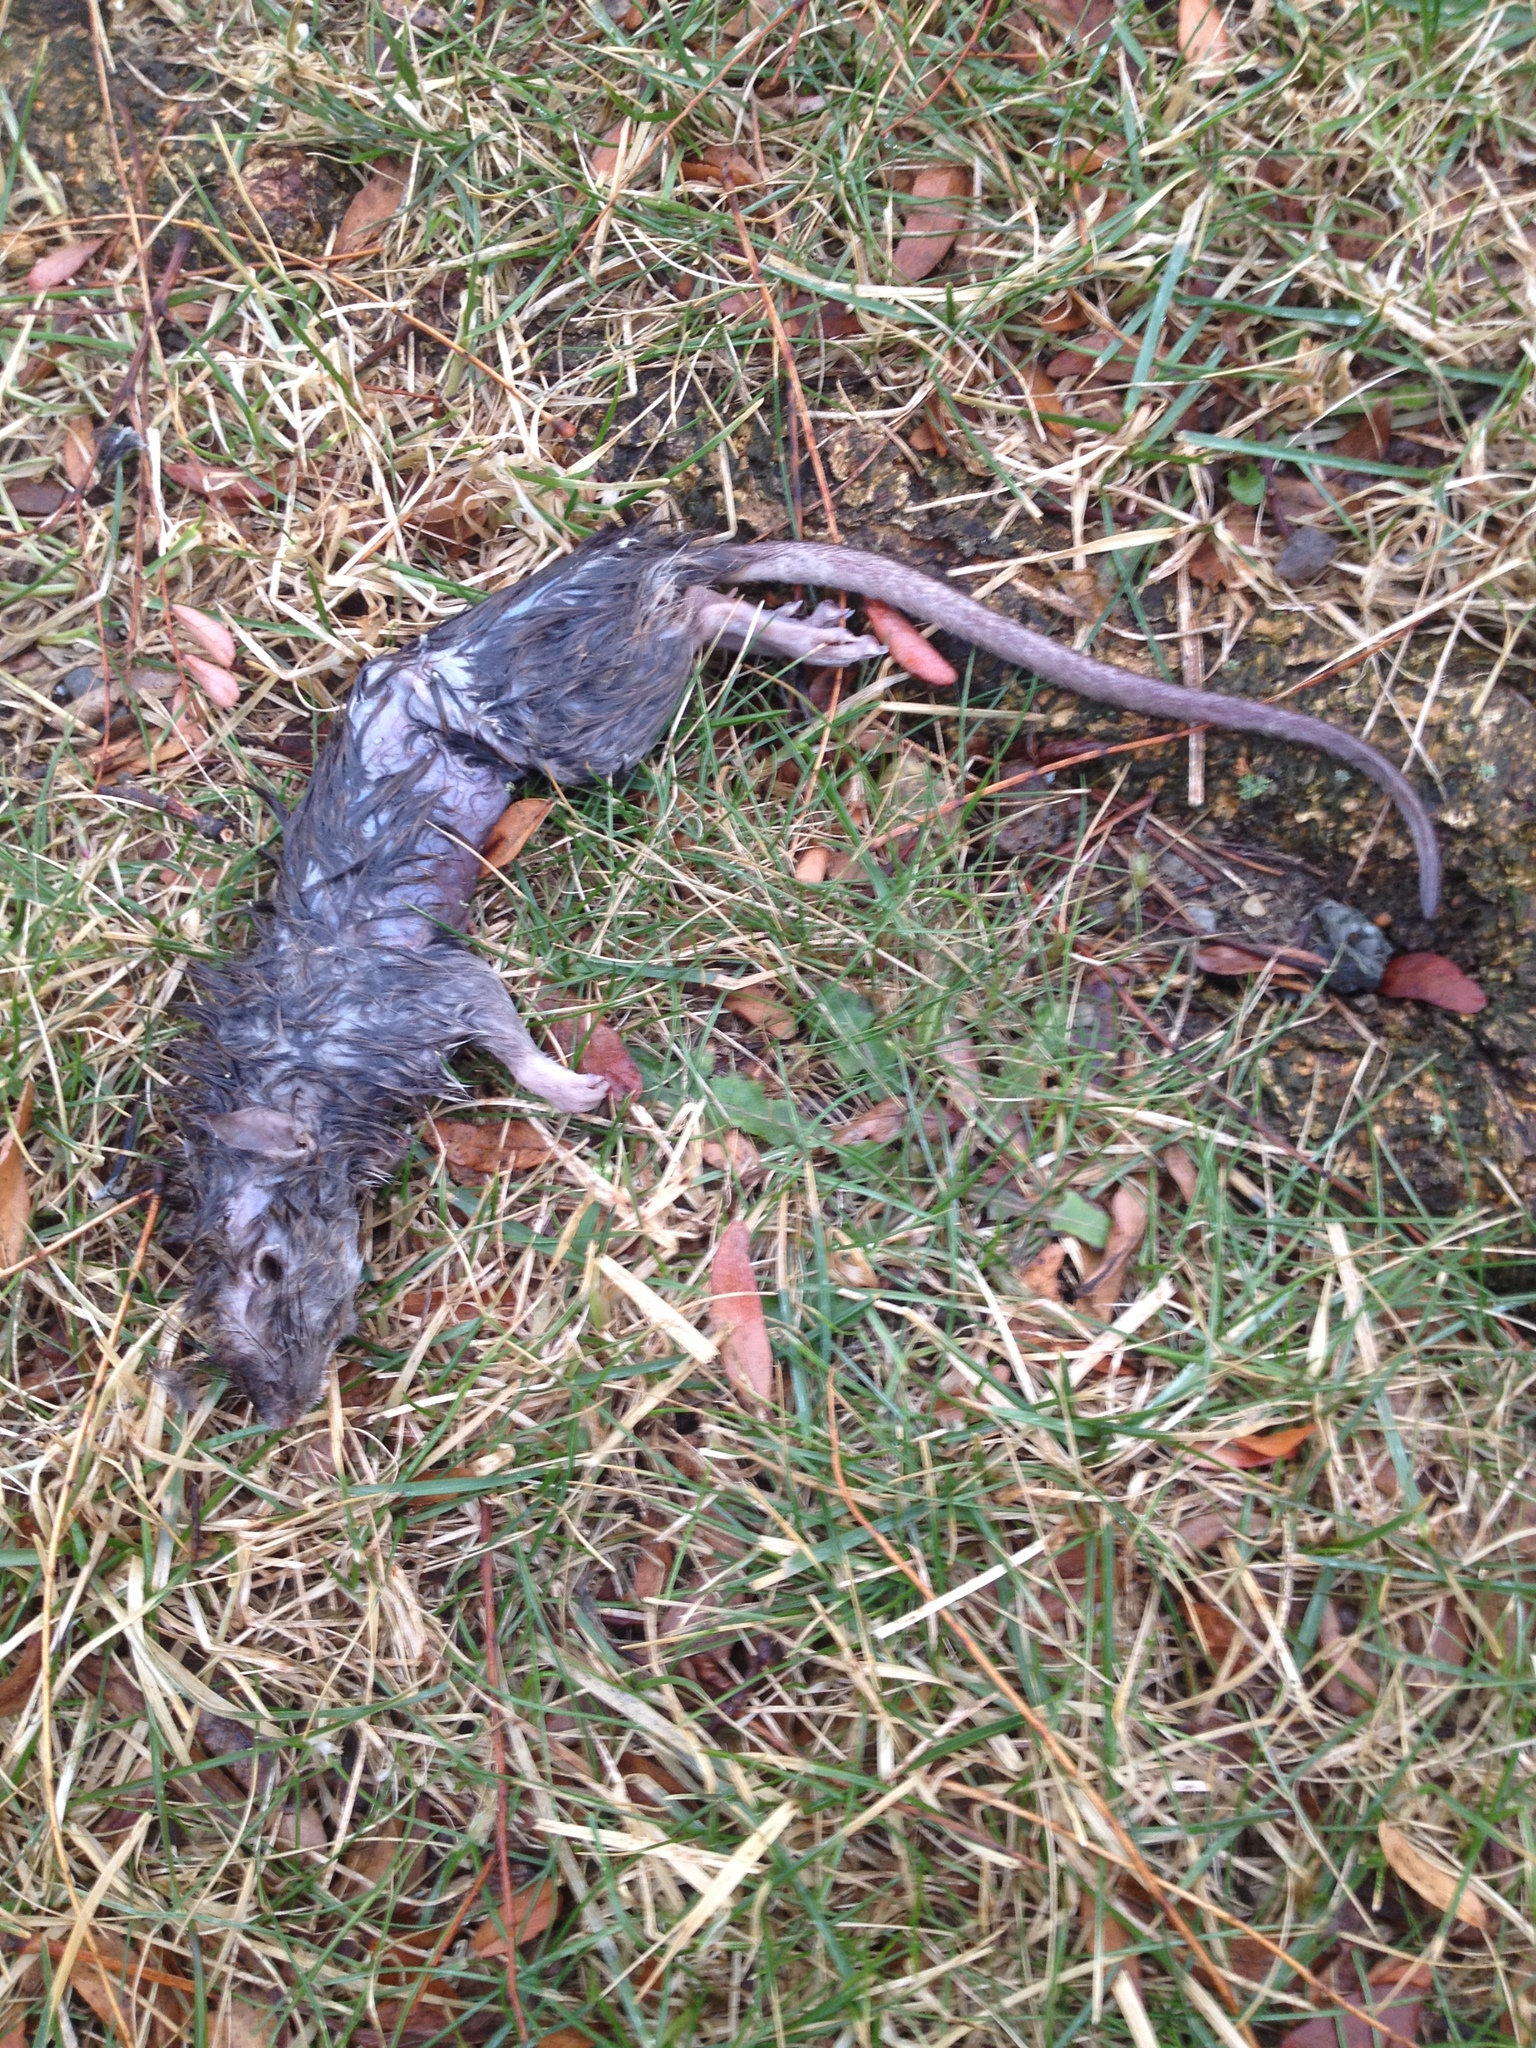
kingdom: Animalia
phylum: Chordata
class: Mammalia
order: Rodentia
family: Muridae
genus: Rattus
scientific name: Rattus norvegicus
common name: Brown rat
